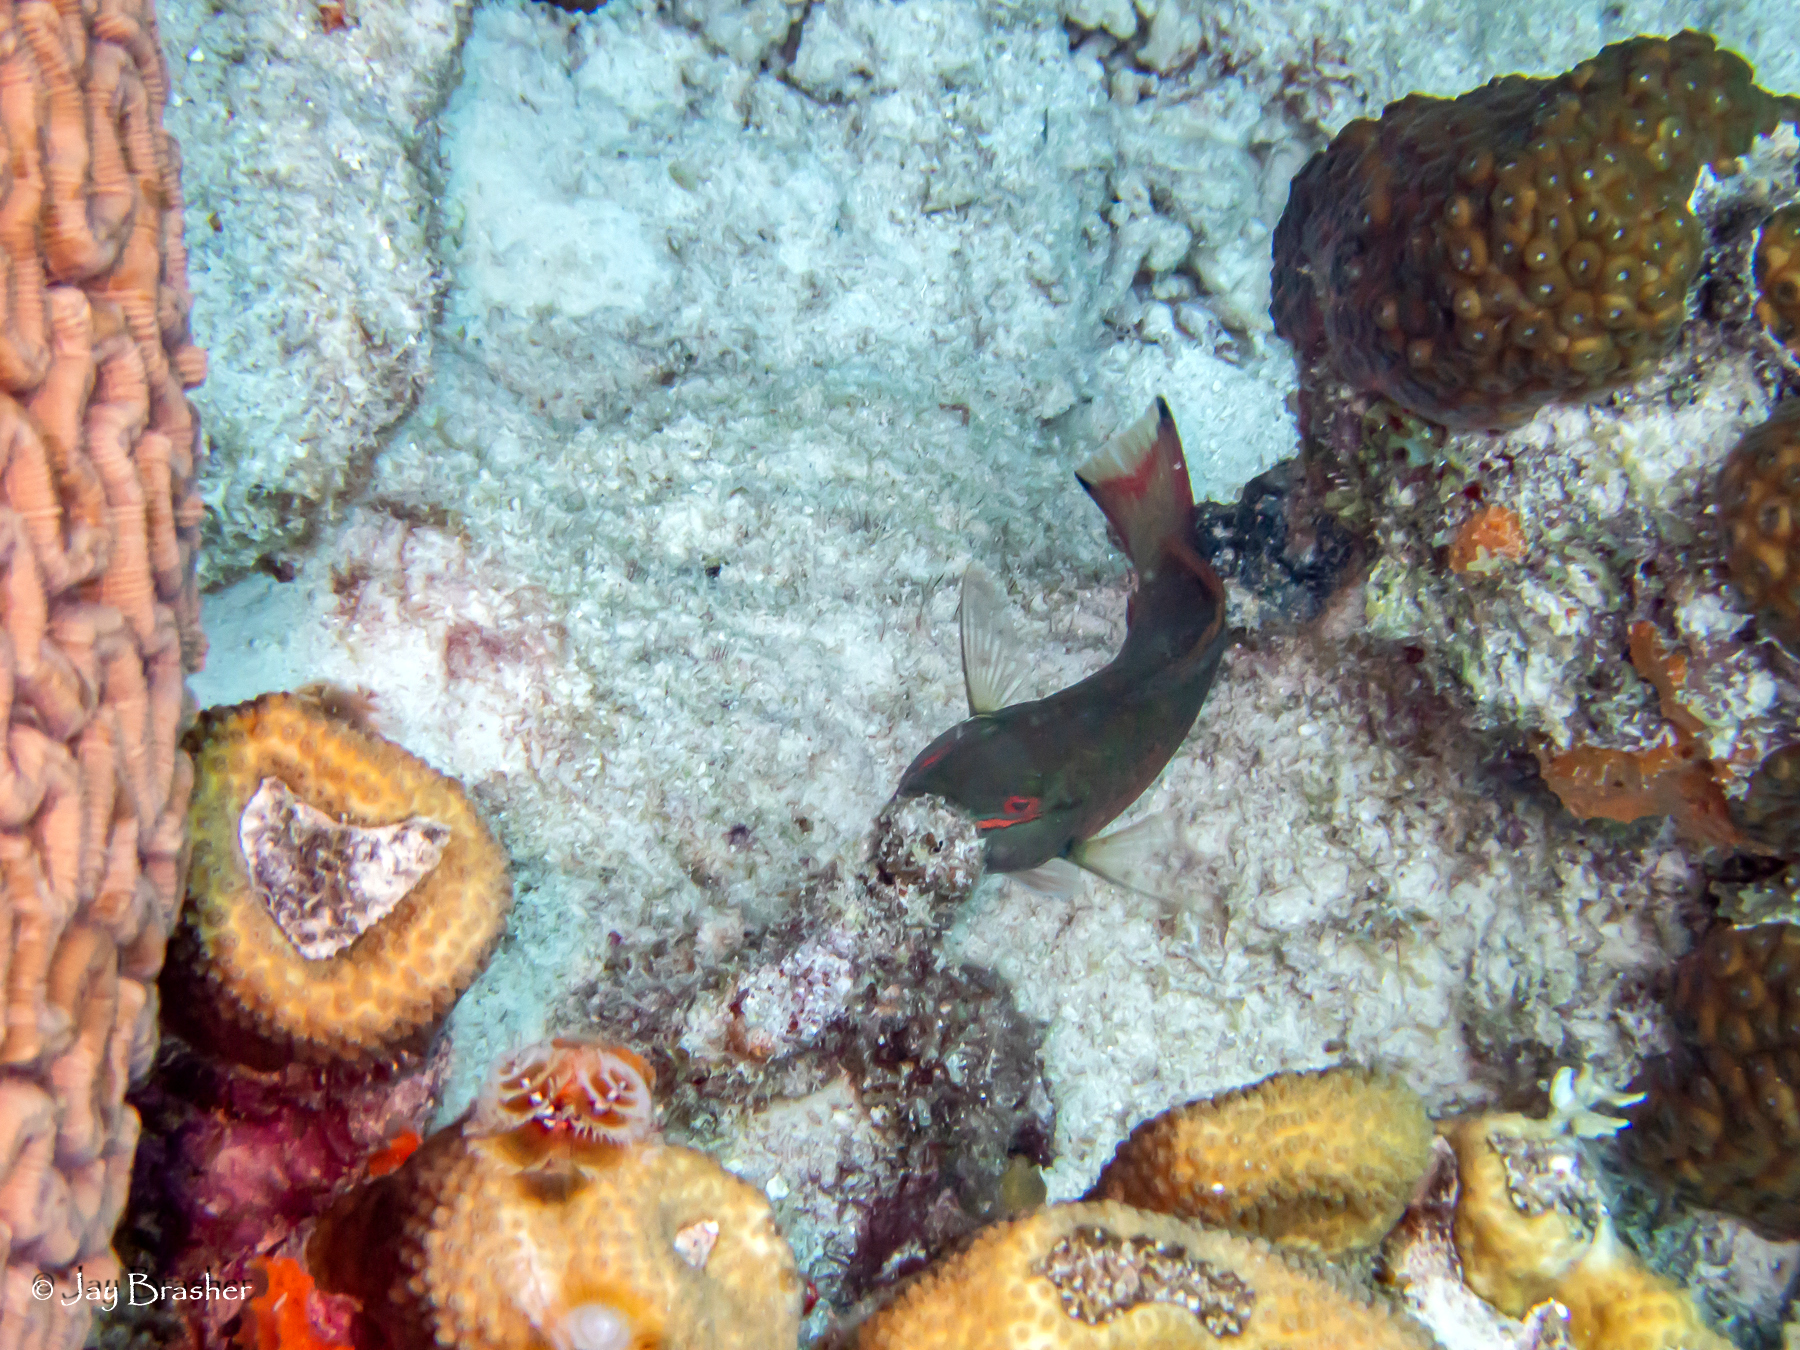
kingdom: Animalia
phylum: Chordata
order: Perciformes
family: Scaridae
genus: Sparisoma
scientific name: Sparisoma aurofrenatum
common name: Redband parrotfish
